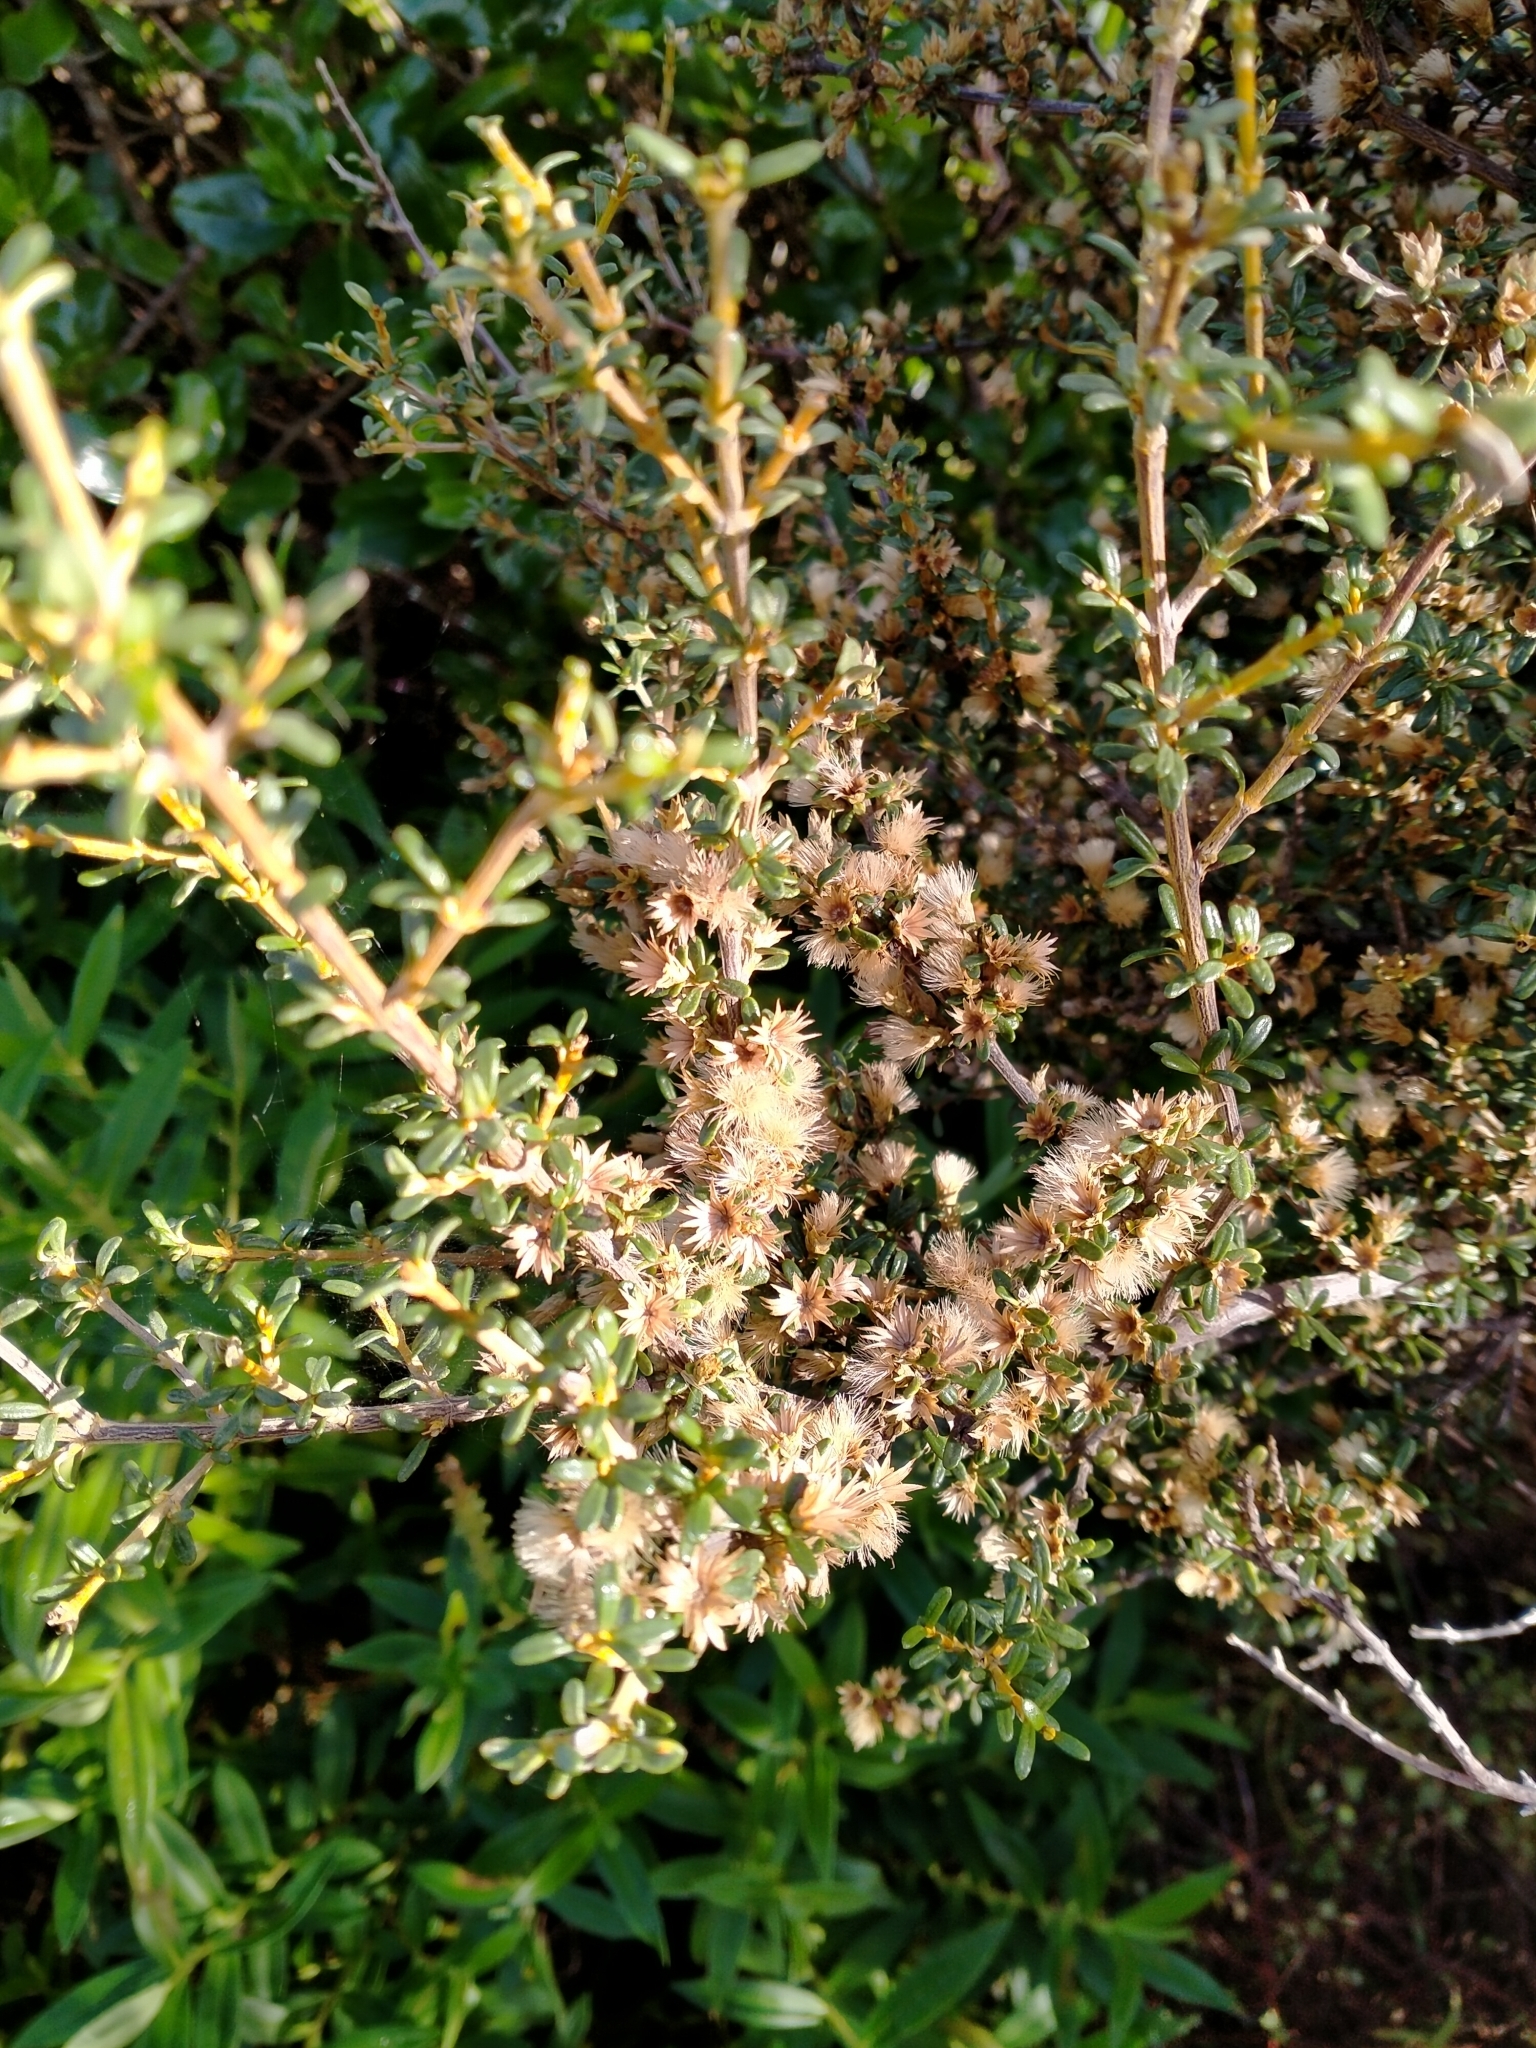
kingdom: Plantae
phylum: Tracheophyta
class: Magnoliopsida
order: Asterales
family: Asteraceae
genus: Olearia
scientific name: Olearia solandri
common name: Coastal daisybush
